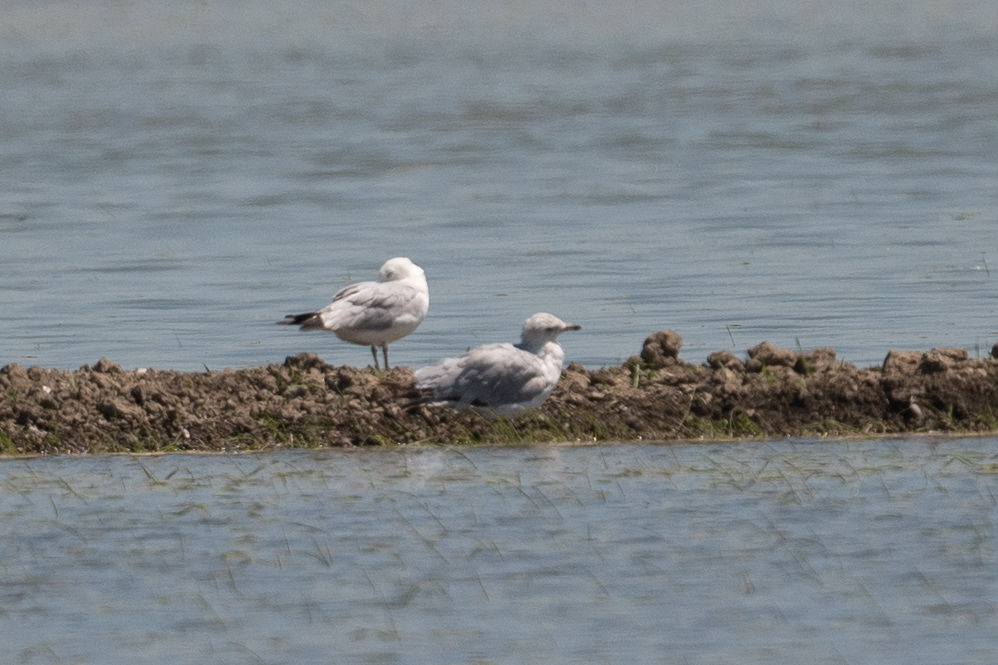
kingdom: Animalia
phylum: Chordata
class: Aves
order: Charadriiformes
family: Laridae
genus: Larus
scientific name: Larus delawarensis
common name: Ring-billed gull
